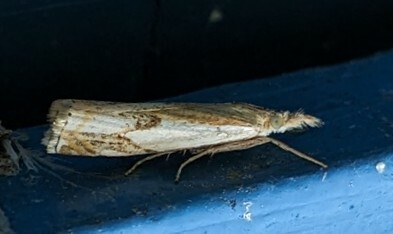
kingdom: Animalia
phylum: Arthropoda
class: Insecta
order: Lepidoptera
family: Crambidae
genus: Crambus
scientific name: Crambus agitatellus
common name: Double-banded grass-veneer
